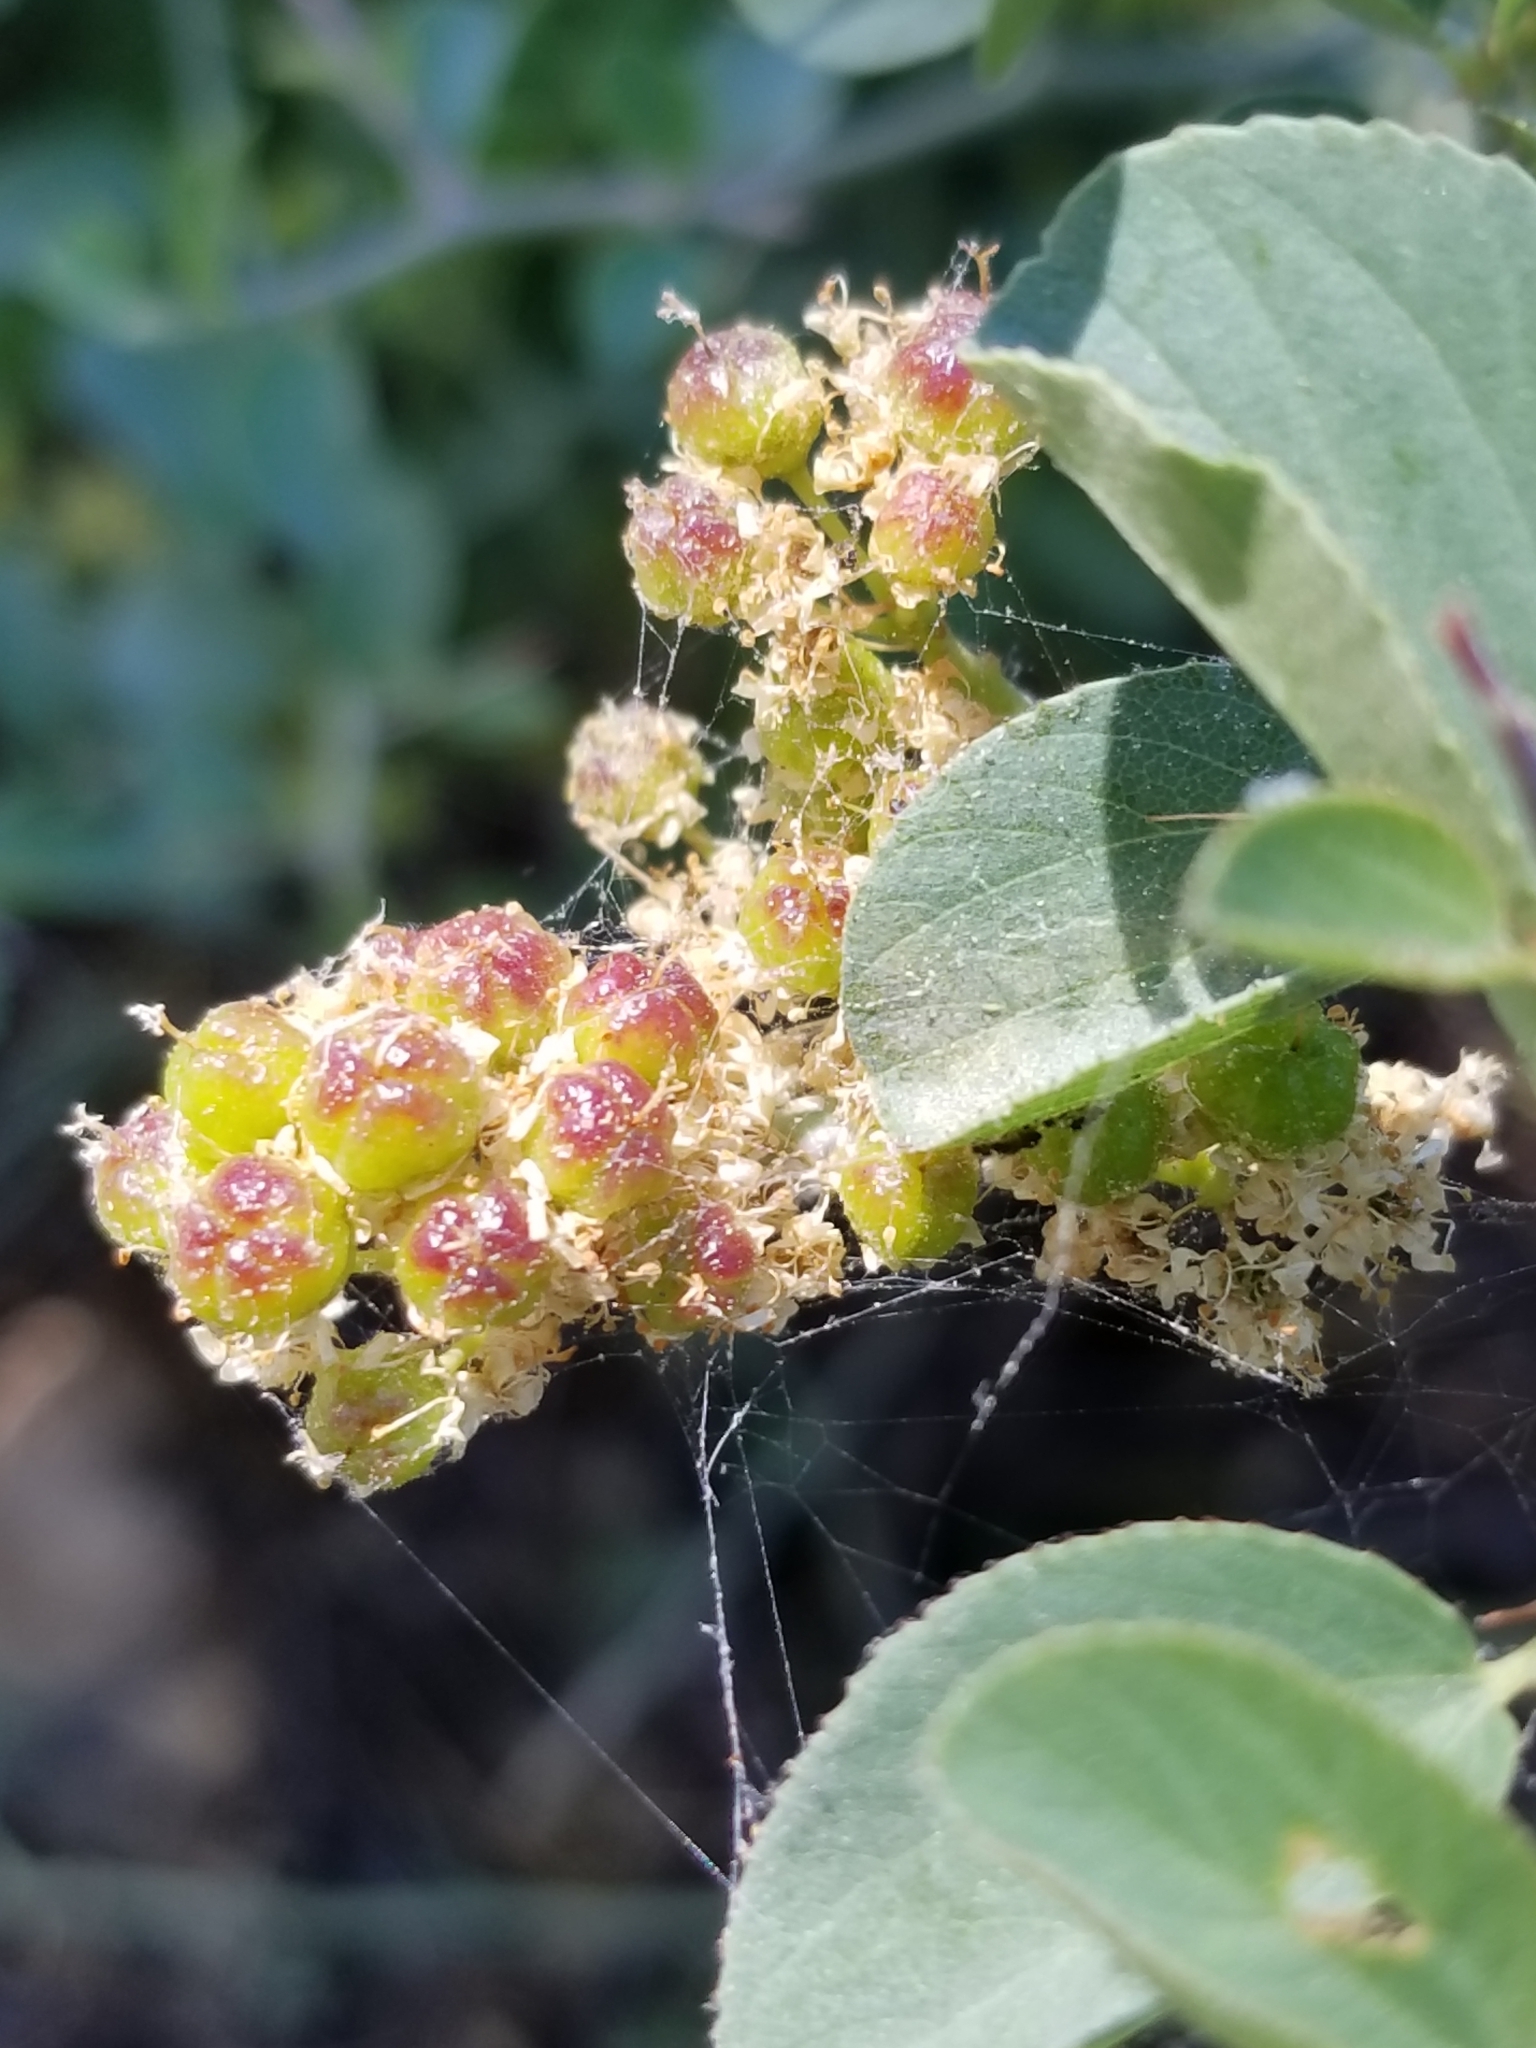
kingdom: Plantae
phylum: Tracheophyta
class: Magnoliopsida
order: Rosales
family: Rhamnaceae
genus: Ceanothus
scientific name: Ceanothus cordulatus
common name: Mountain whitethorn
